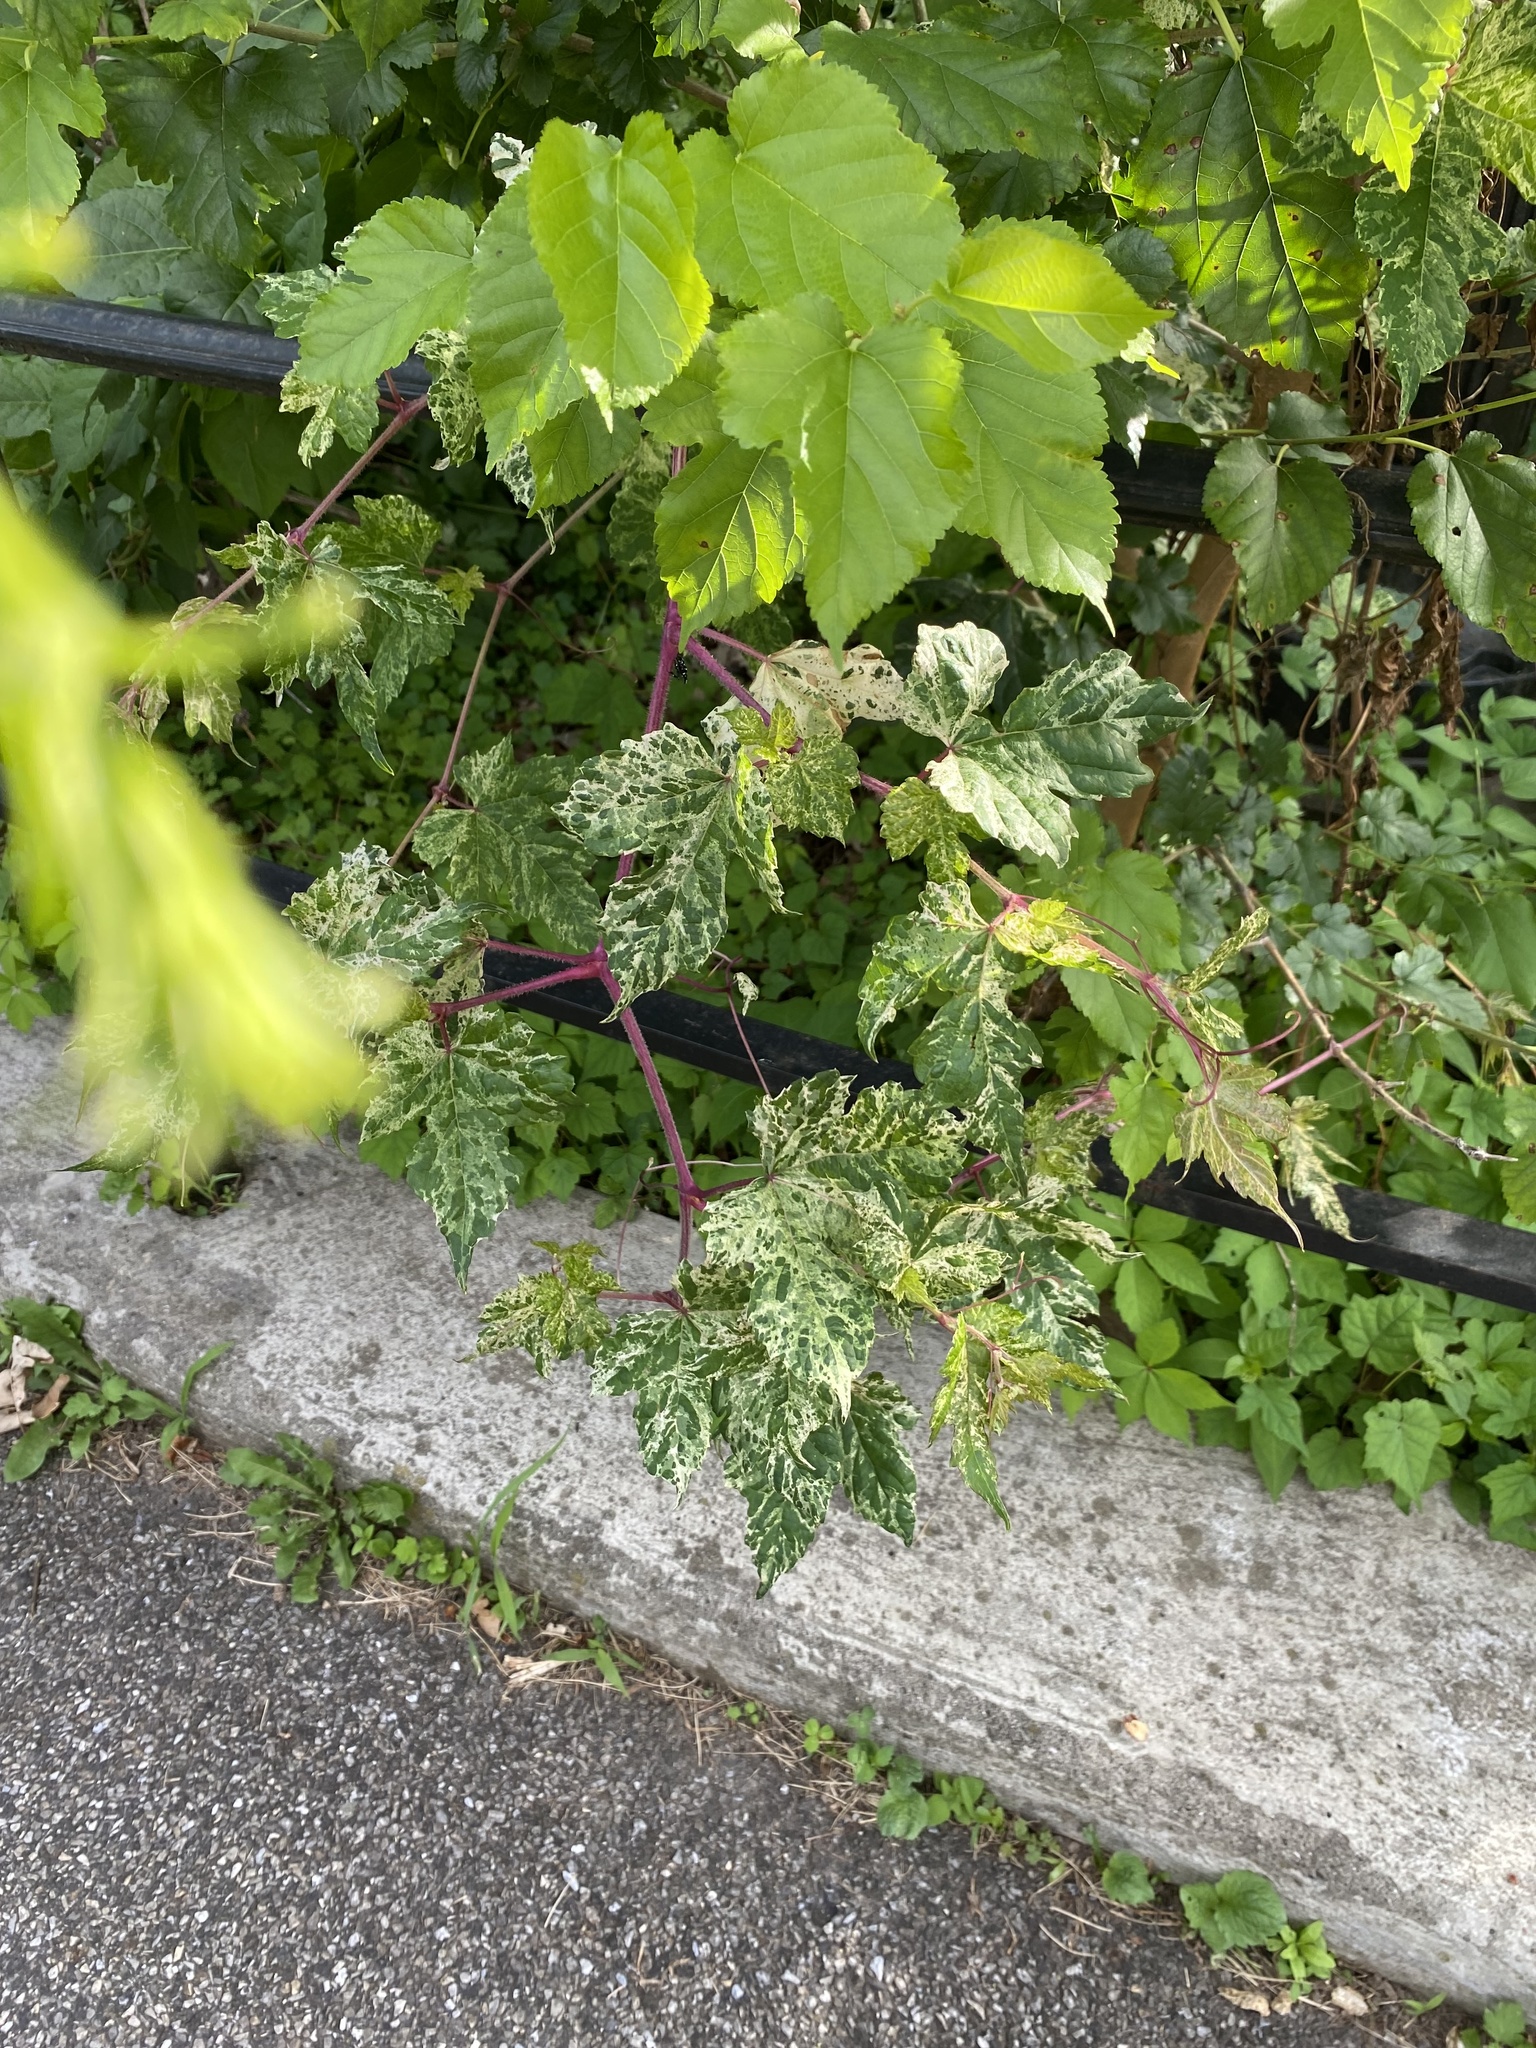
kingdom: Plantae
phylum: Tracheophyta
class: Magnoliopsida
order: Vitales
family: Vitaceae
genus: Ampelopsis
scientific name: Ampelopsis glandulosa
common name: Amur peppervine
